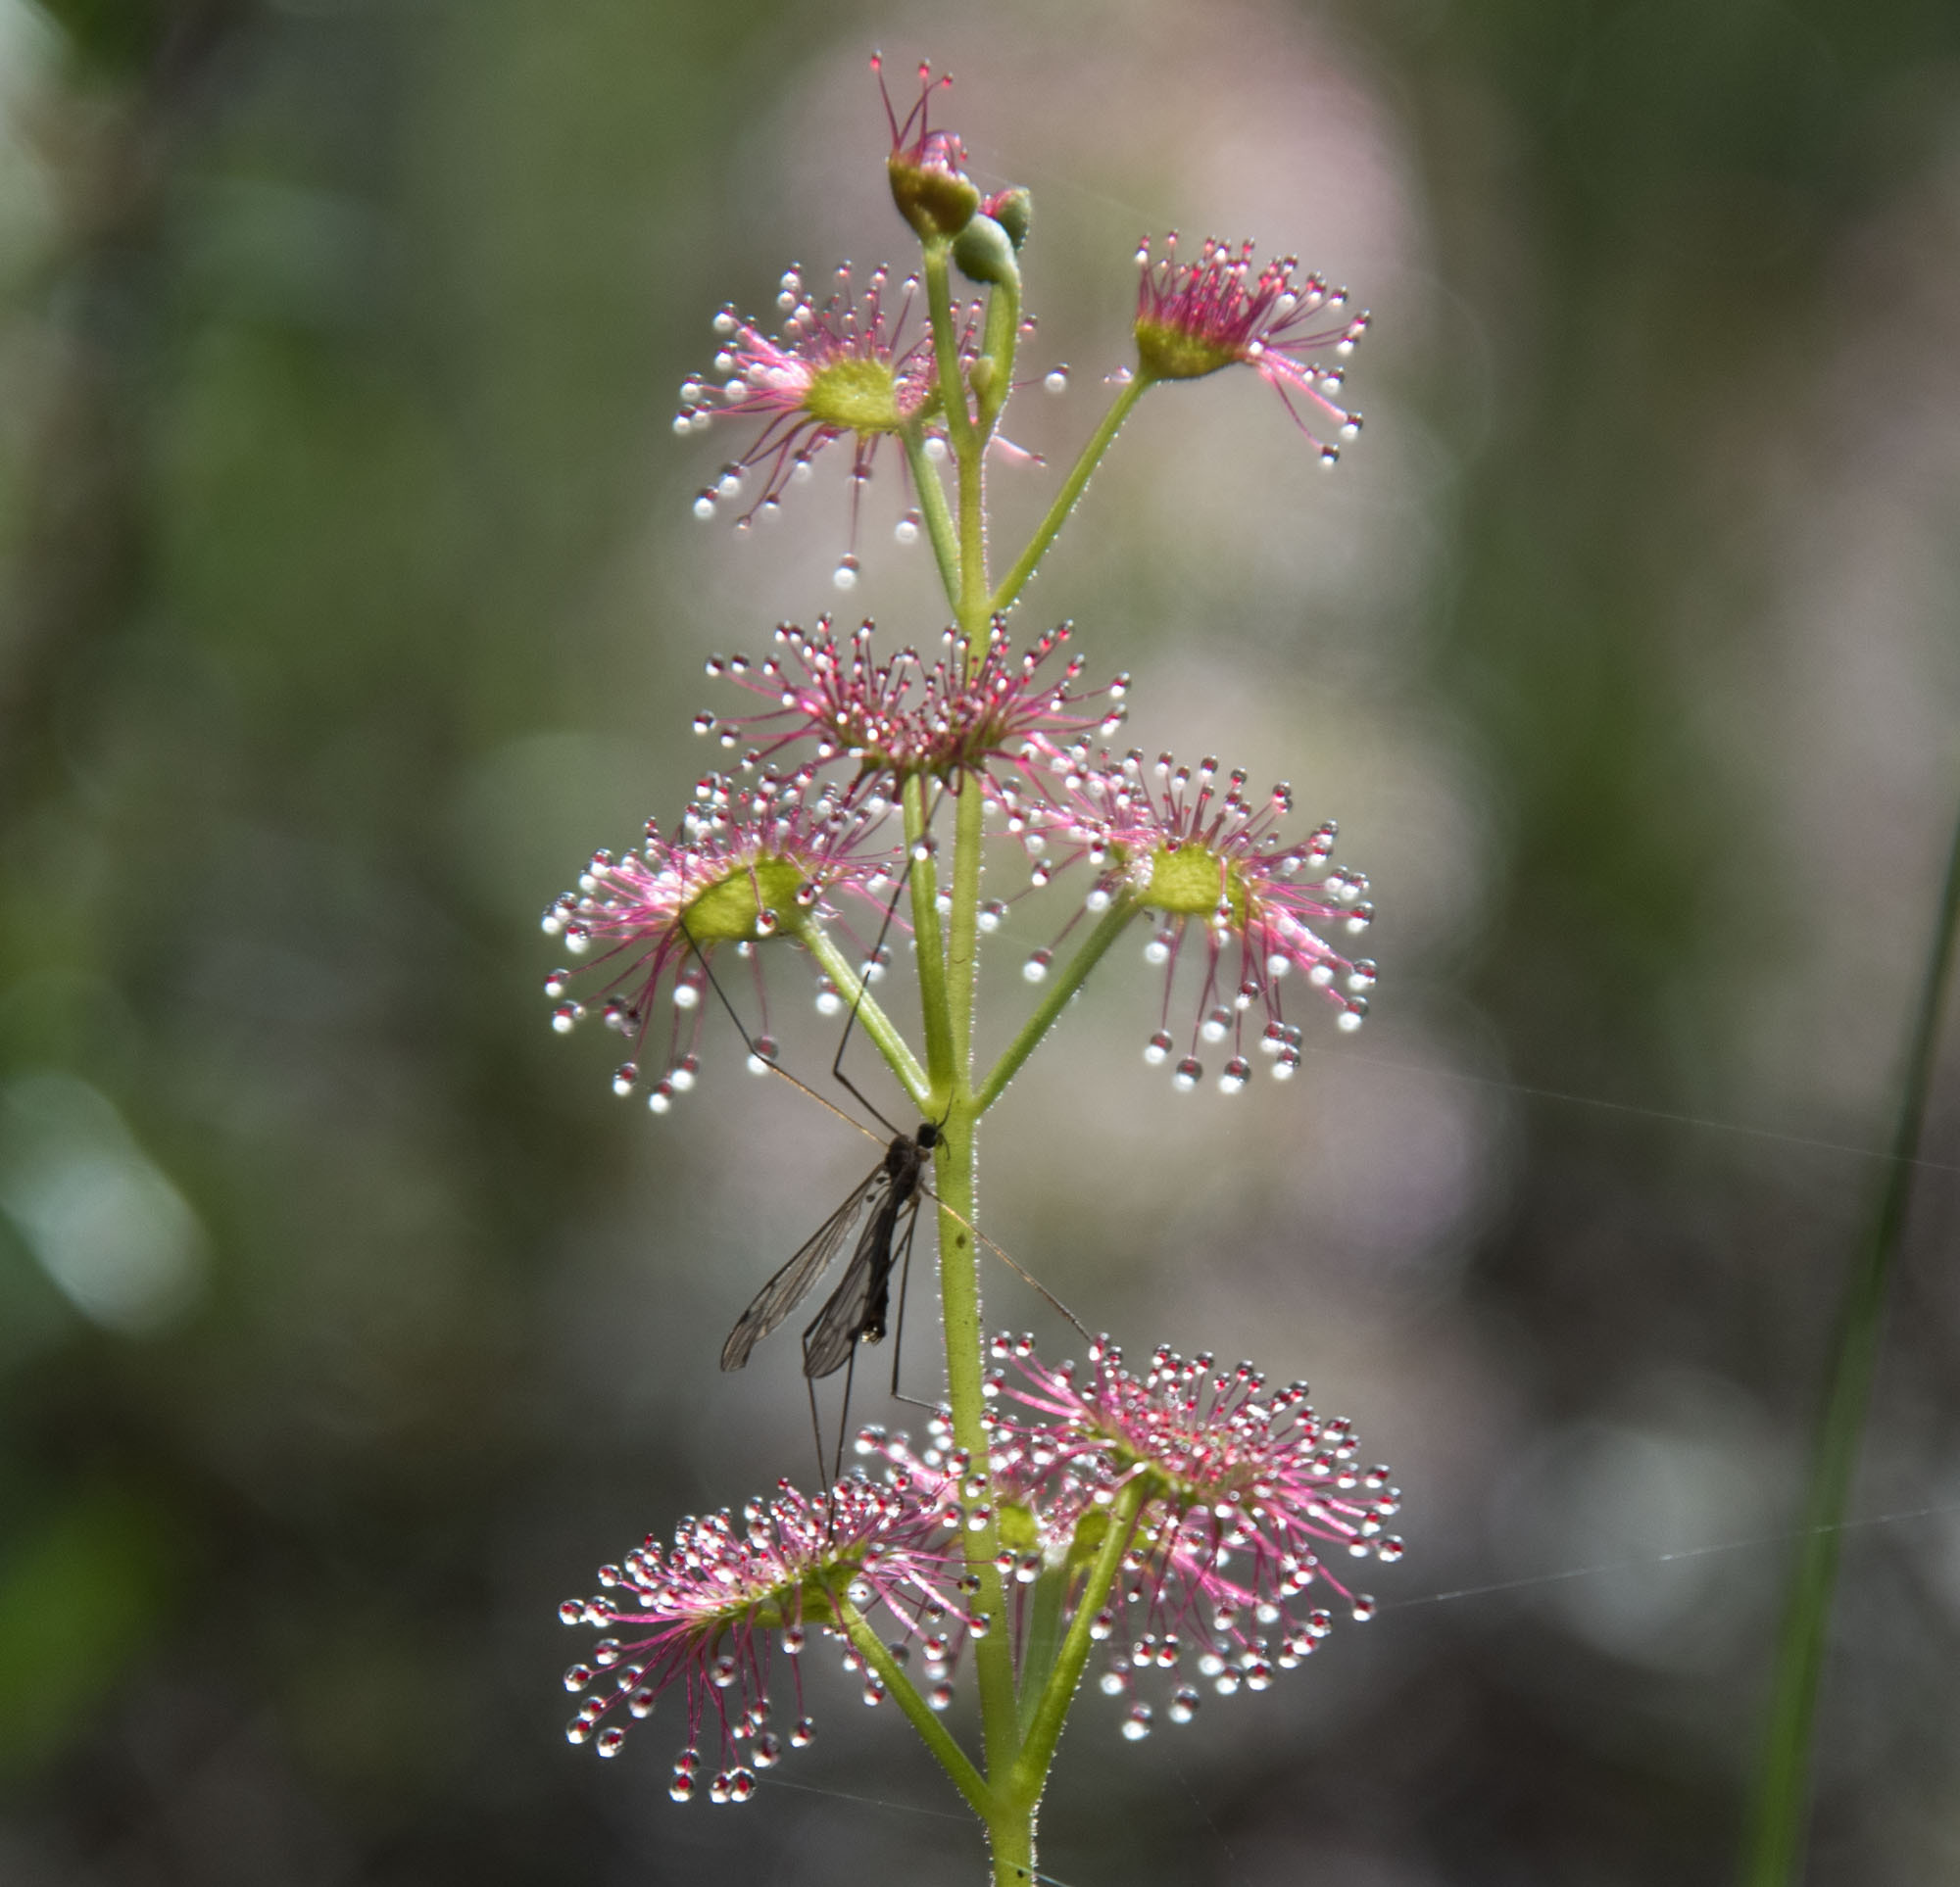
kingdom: Plantae
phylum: Tracheophyta
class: Magnoliopsida
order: Caryophyllales
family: Droseraceae
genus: Drosera
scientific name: Drosera stolonifera
